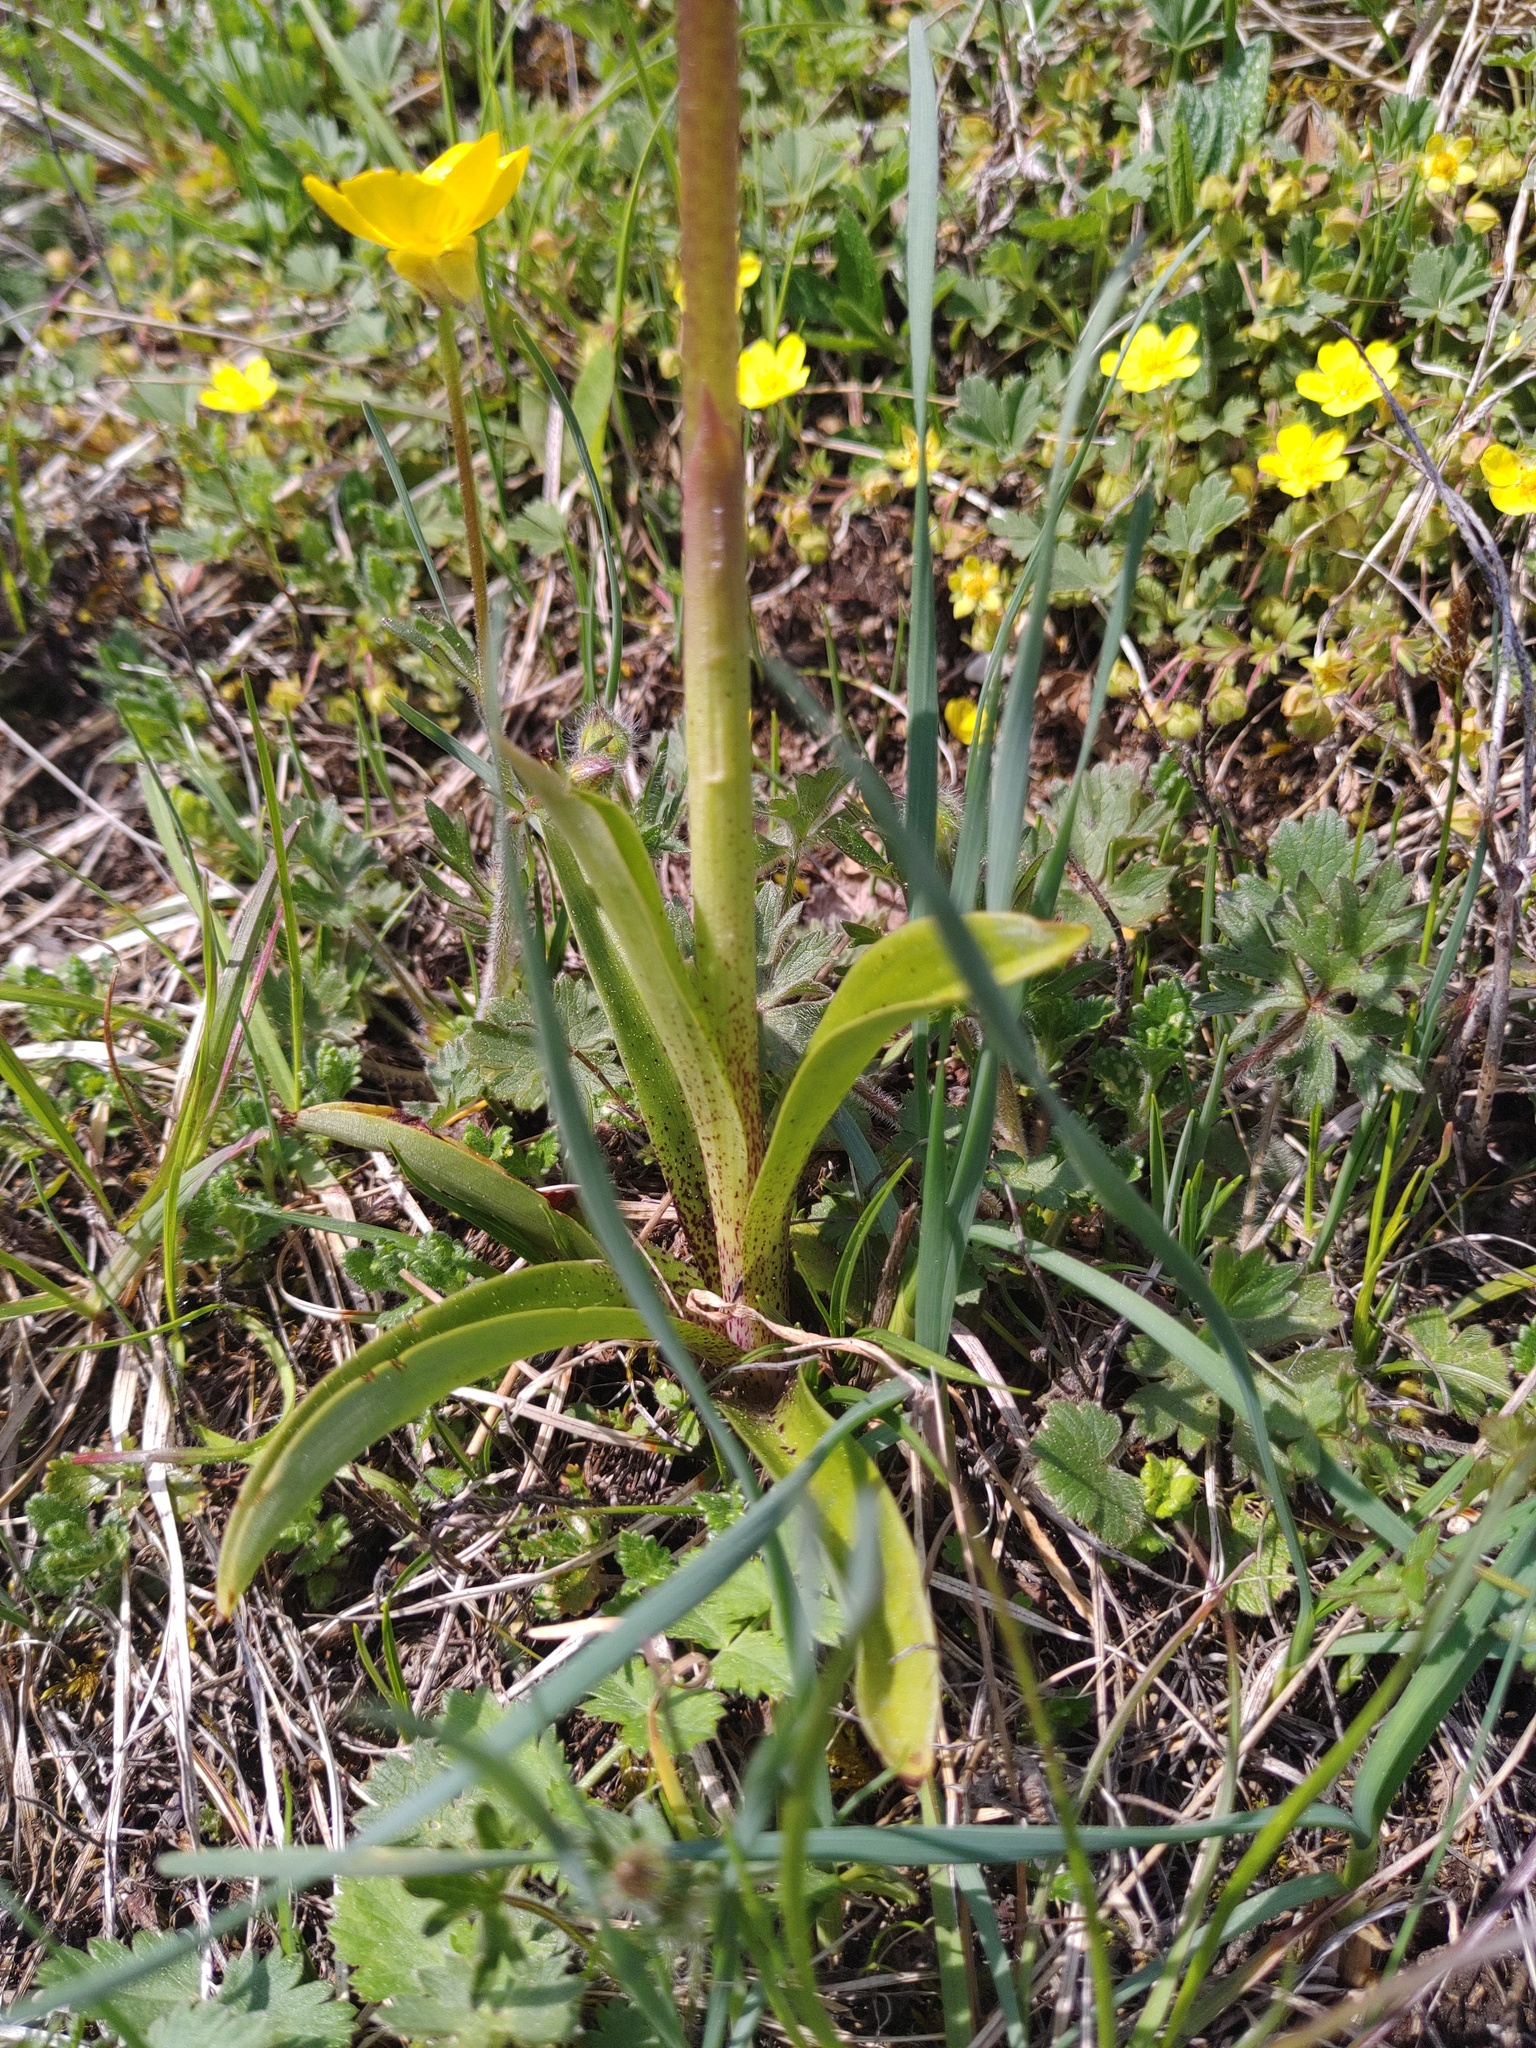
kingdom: Plantae
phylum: Tracheophyta
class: Liliopsida
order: Asparagales
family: Orchidaceae
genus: Orchis
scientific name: Orchis mascula
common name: Early-purple orchid
